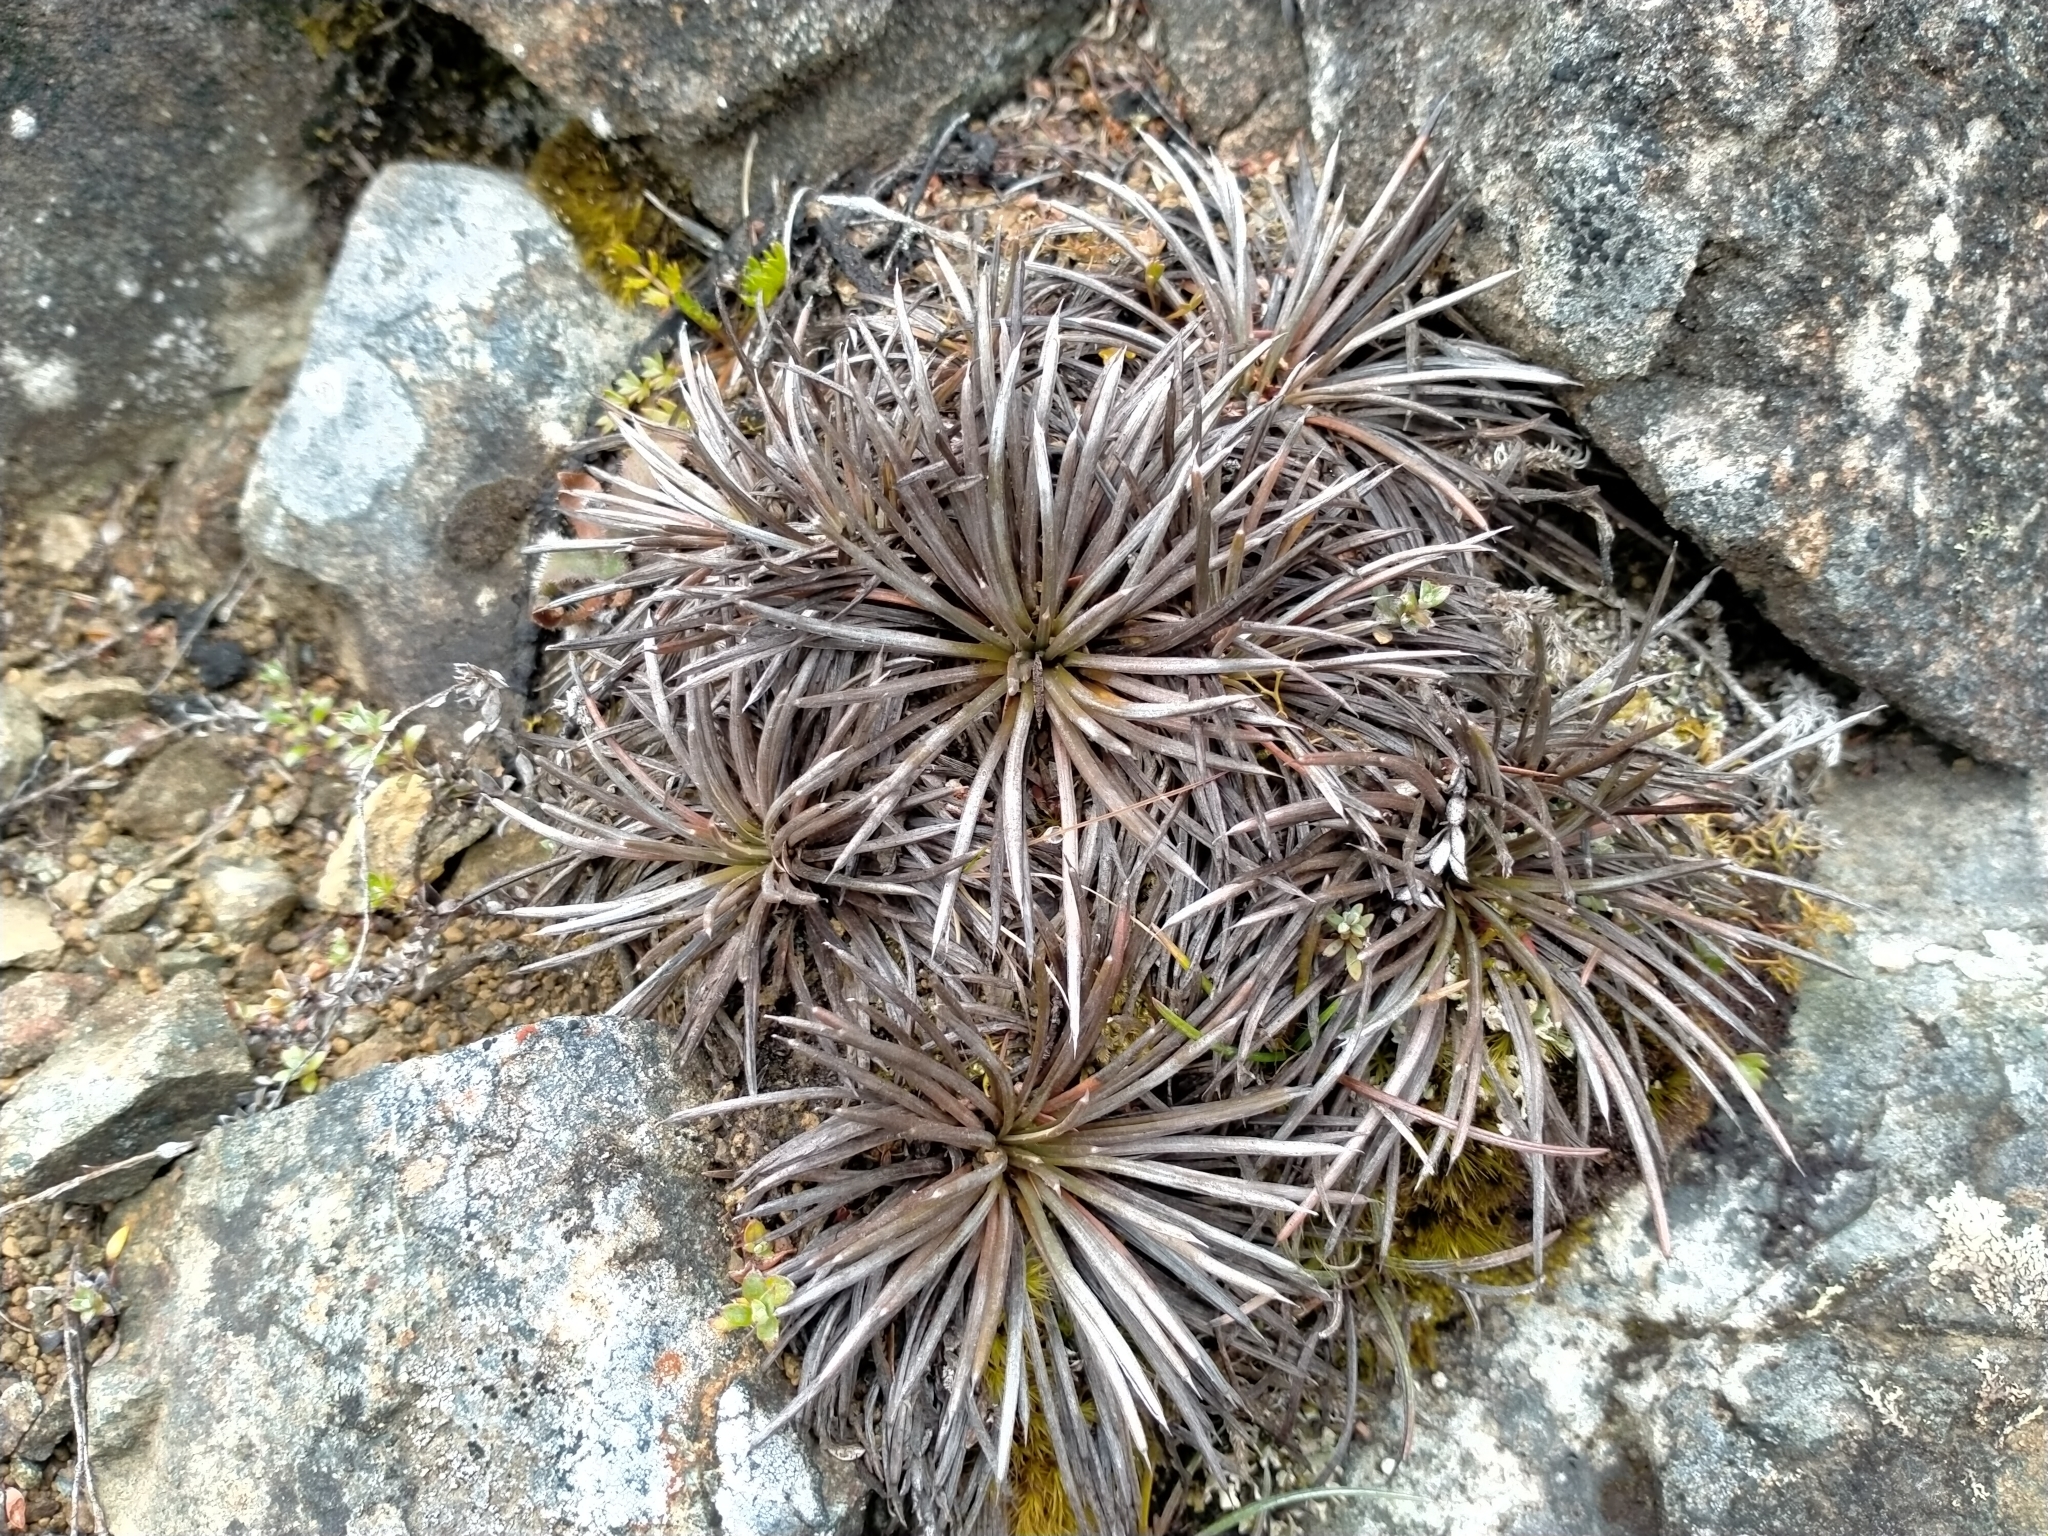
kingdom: Plantae
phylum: Tracheophyta
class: Magnoliopsida
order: Asterales
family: Asteraceae
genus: Celmisia
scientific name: Celmisia spedenii
